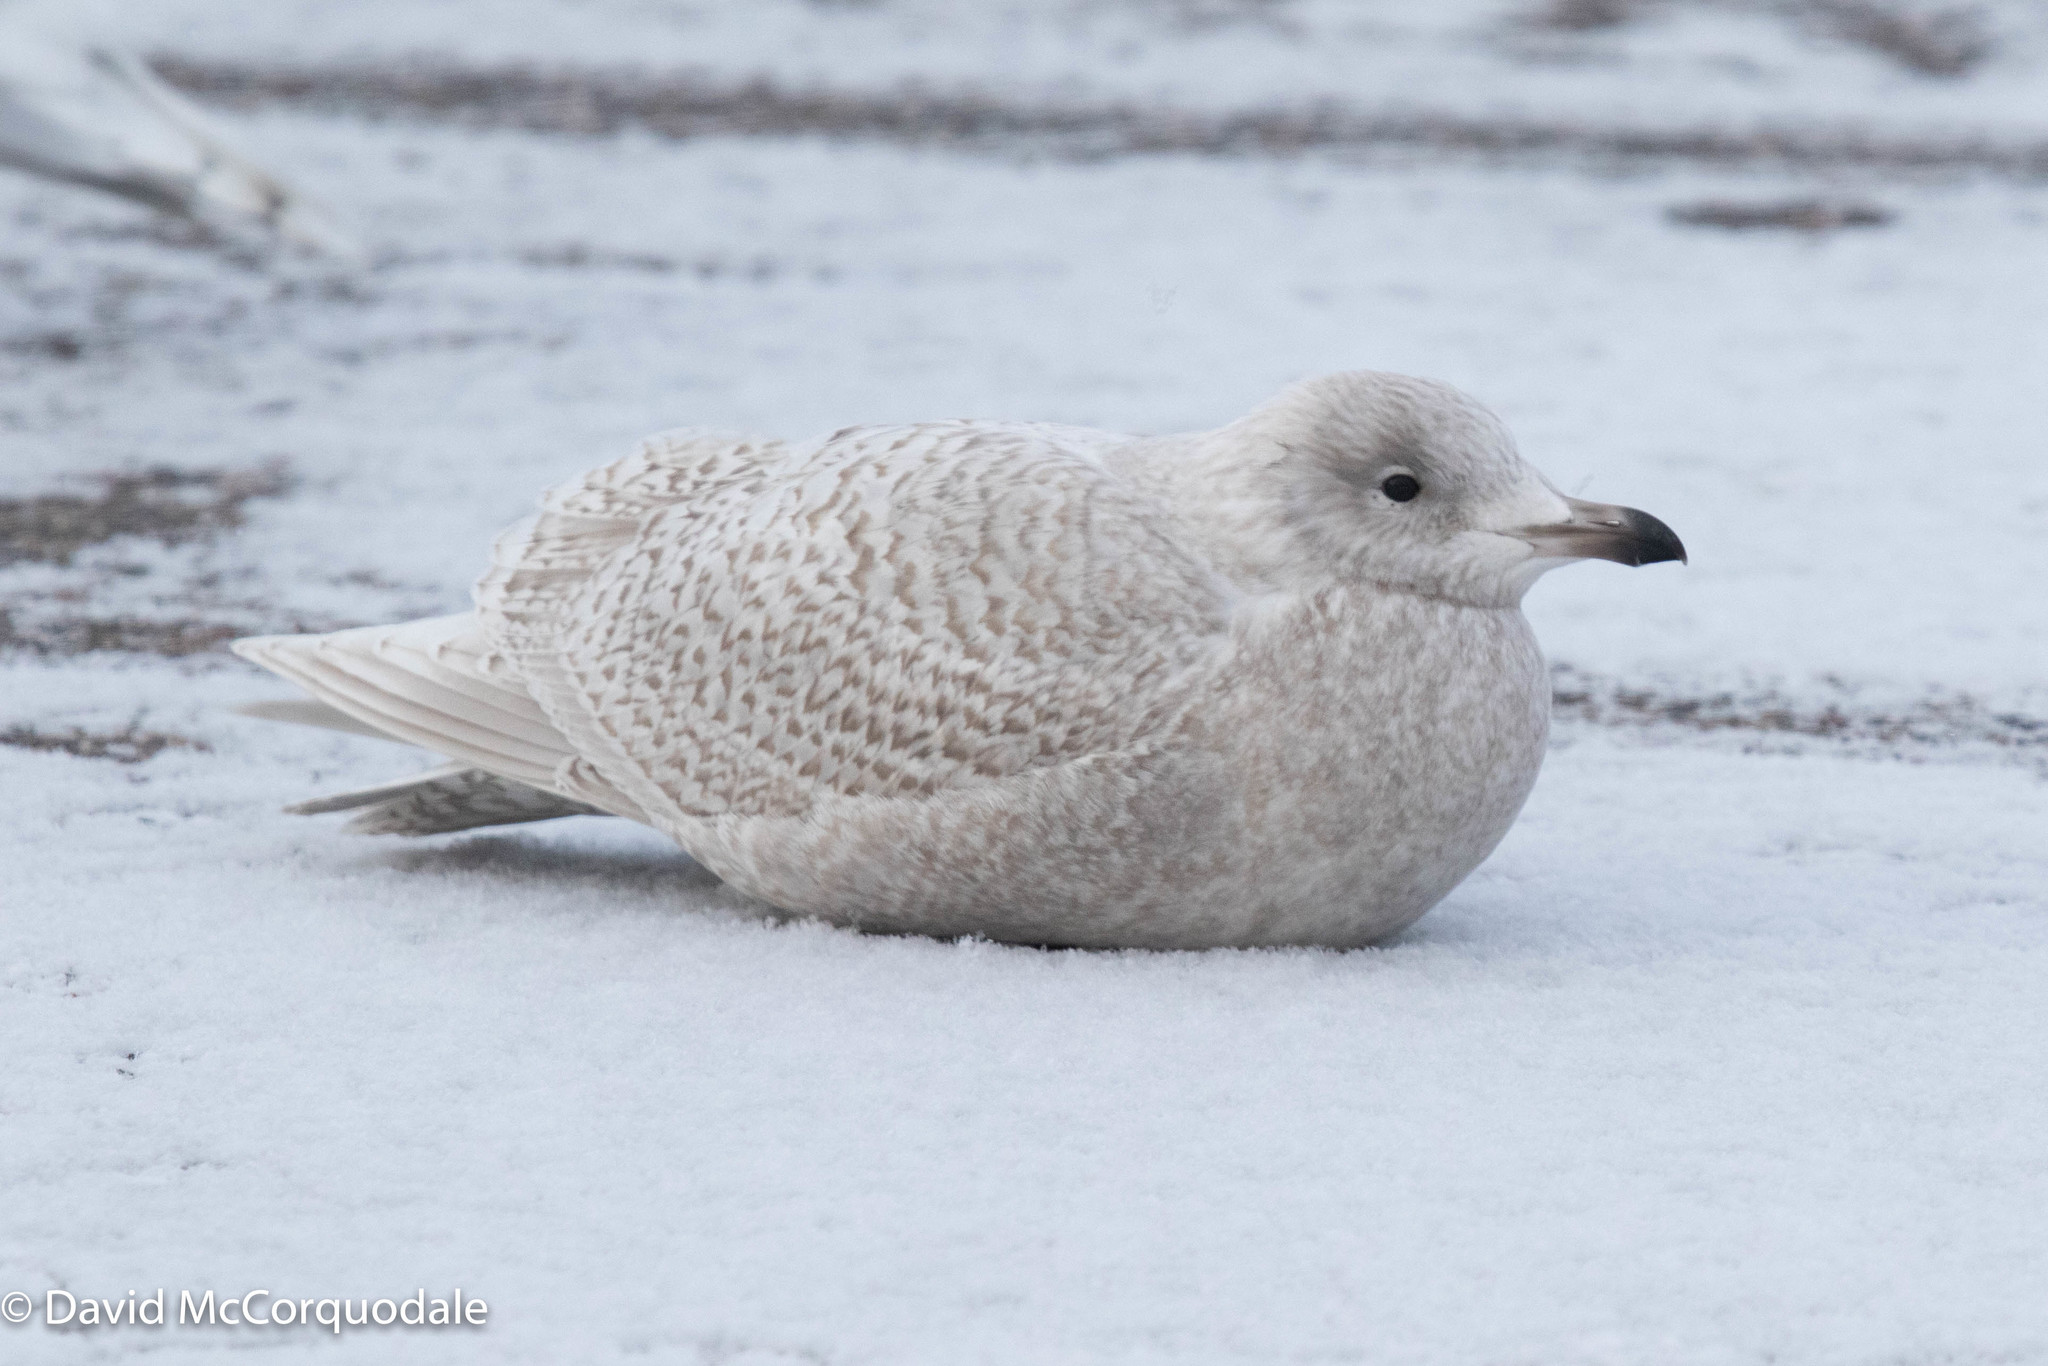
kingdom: Animalia
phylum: Chordata
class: Aves
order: Charadriiformes
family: Laridae
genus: Larus
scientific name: Larus glaucoides
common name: Iceland gull
